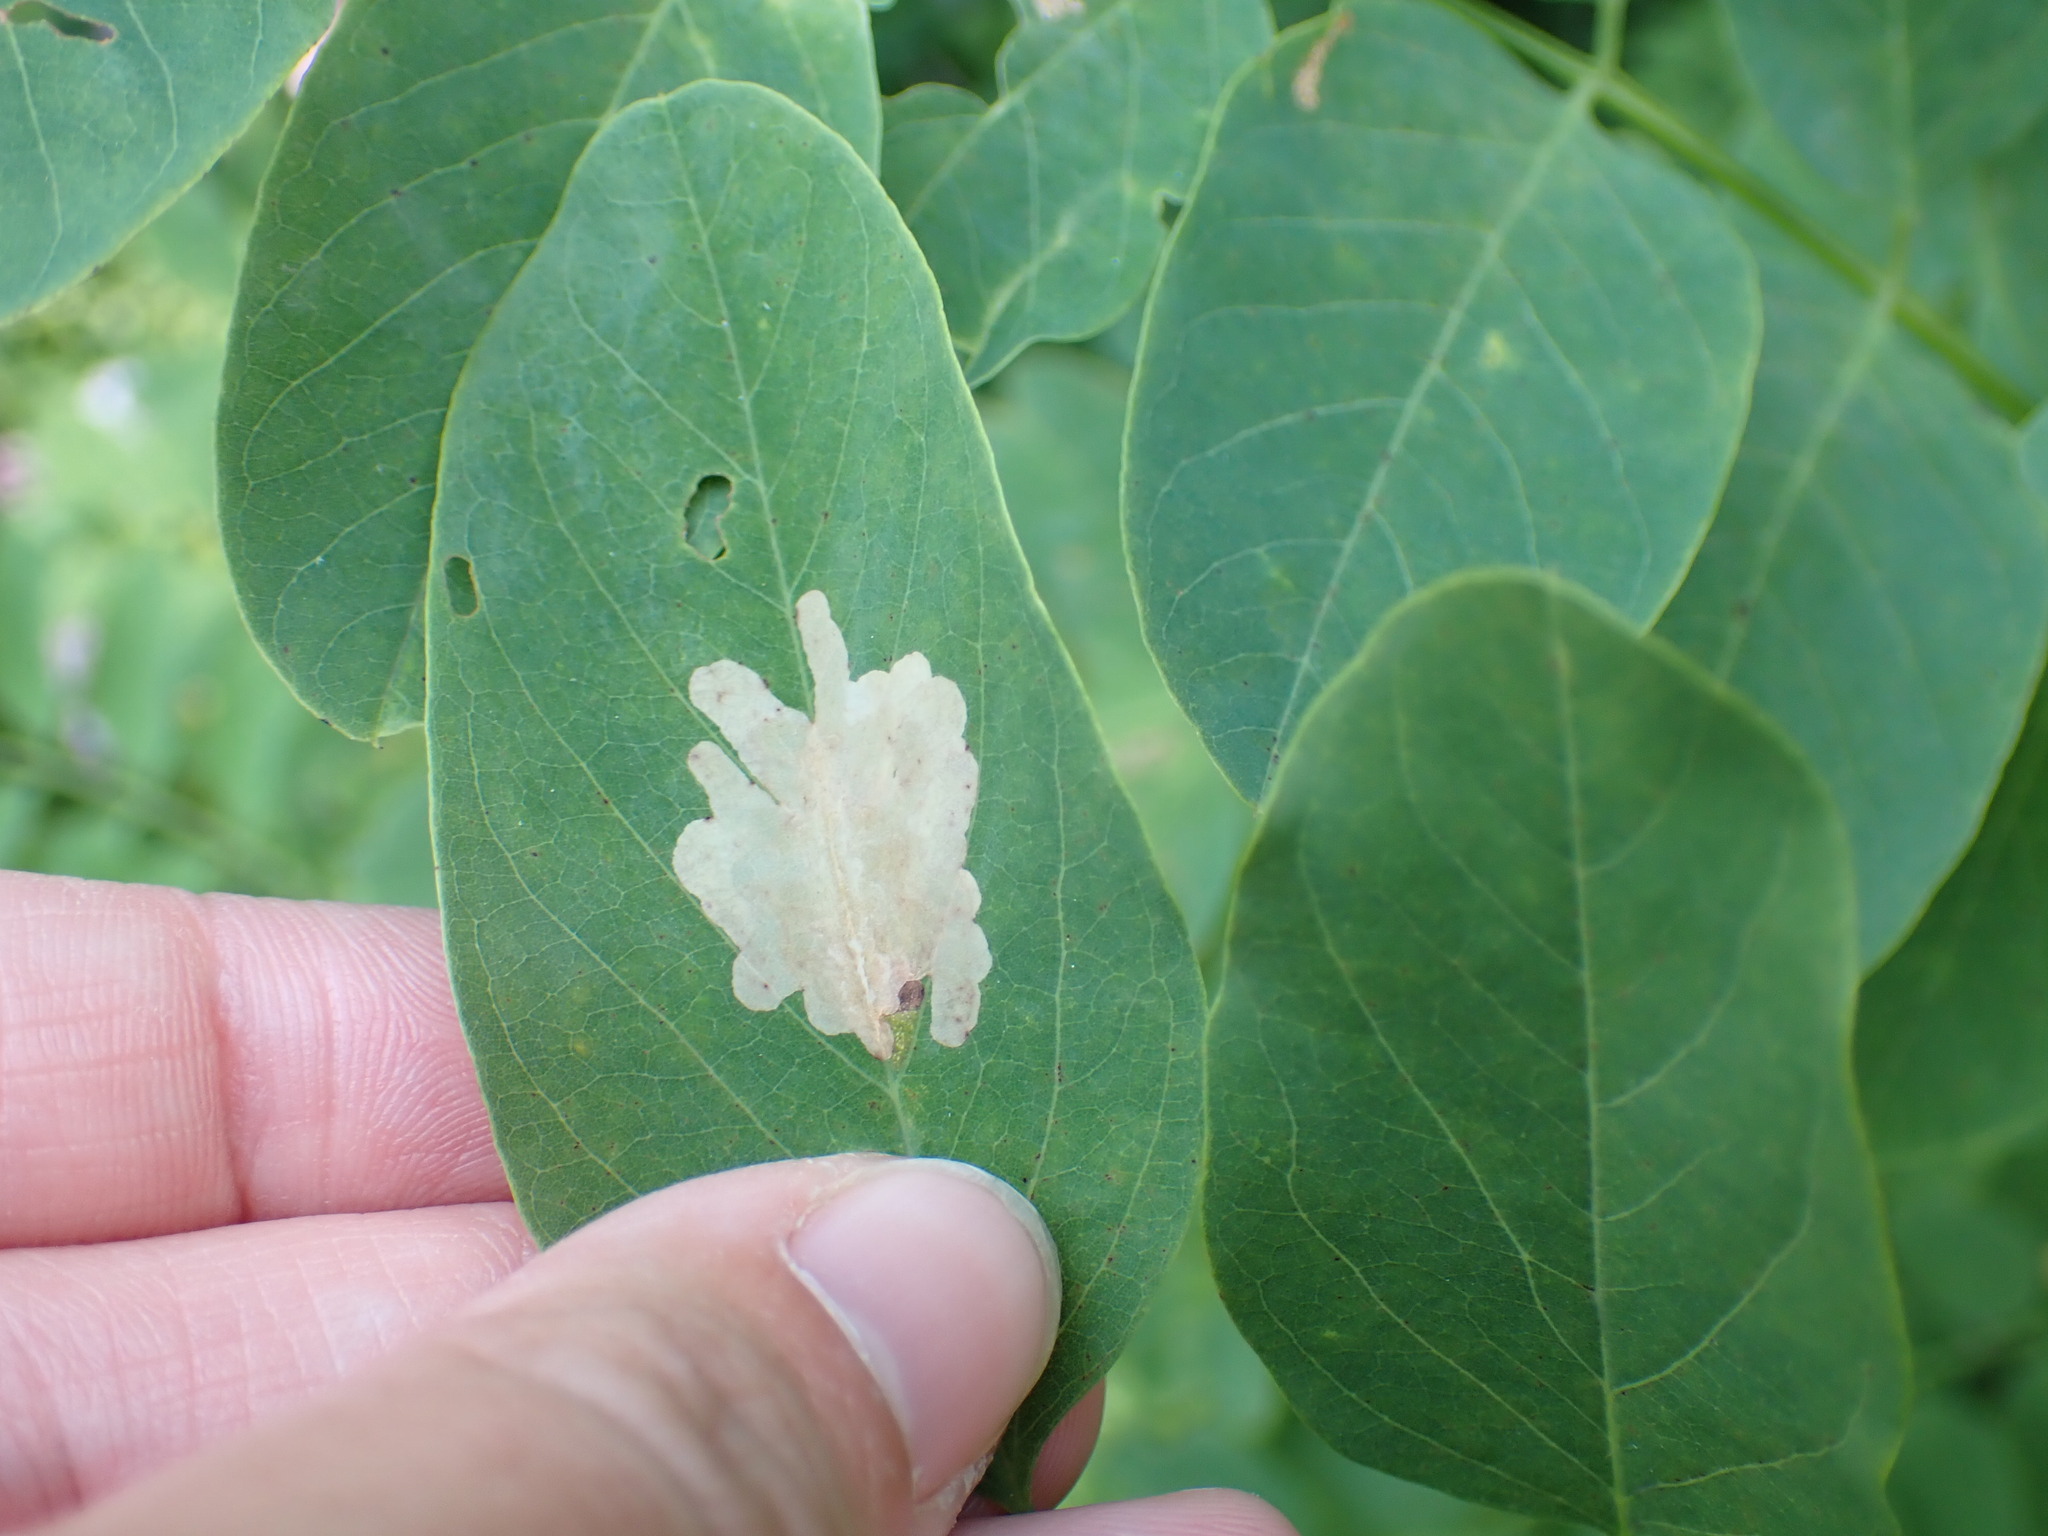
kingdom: Animalia
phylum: Arthropoda
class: Insecta
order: Lepidoptera
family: Gracillariidae
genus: Parectopa
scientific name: Parectopa robiniella
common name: Locust digitate leafminer
